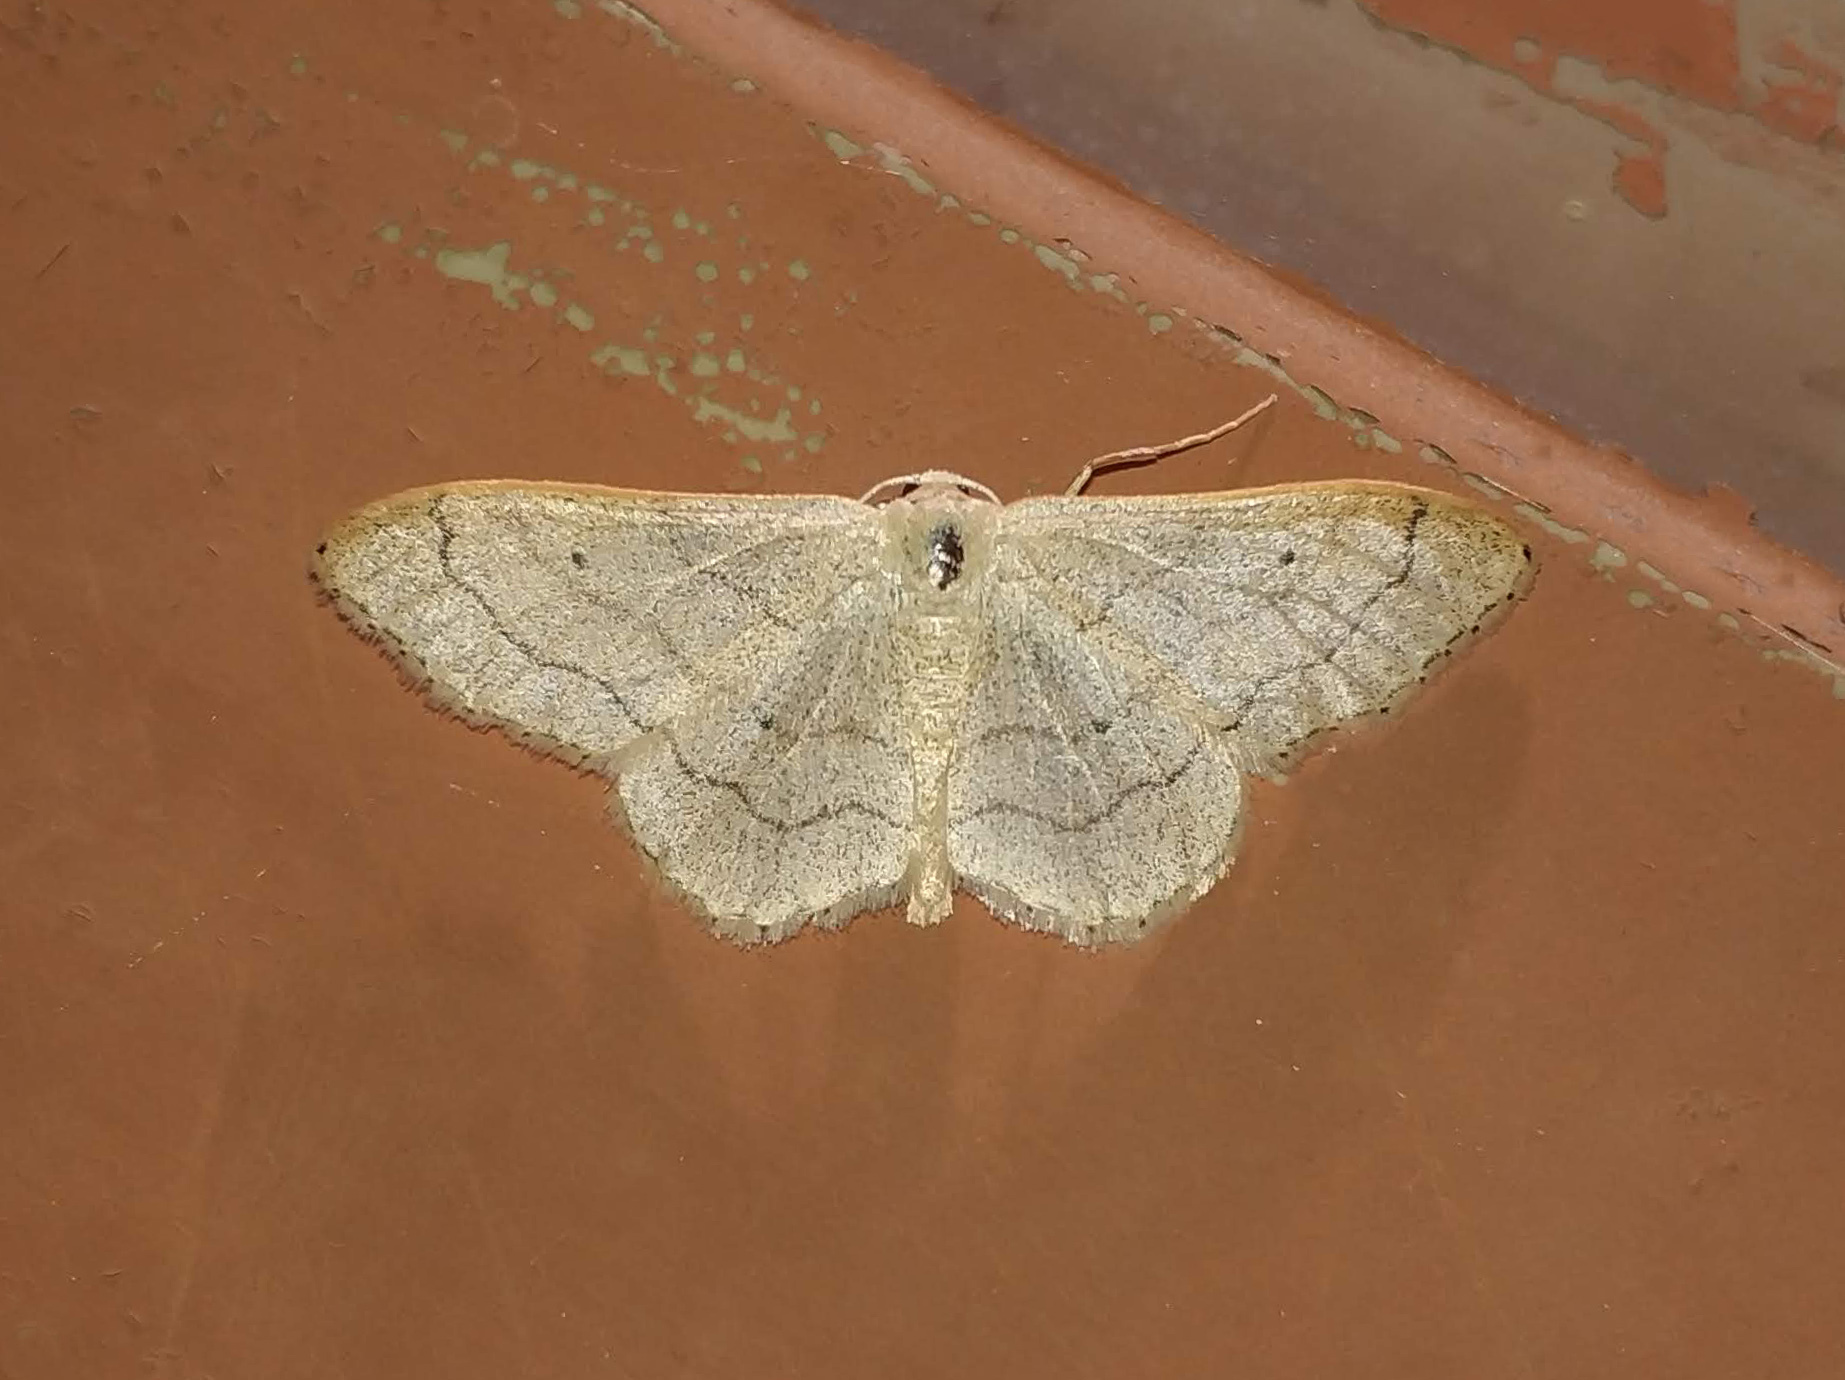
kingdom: Animalia
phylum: Arthropoda
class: Insecta
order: Lepidoptera
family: Geometridae
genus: Idaea
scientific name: Idaea aversata
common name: Riband wave
